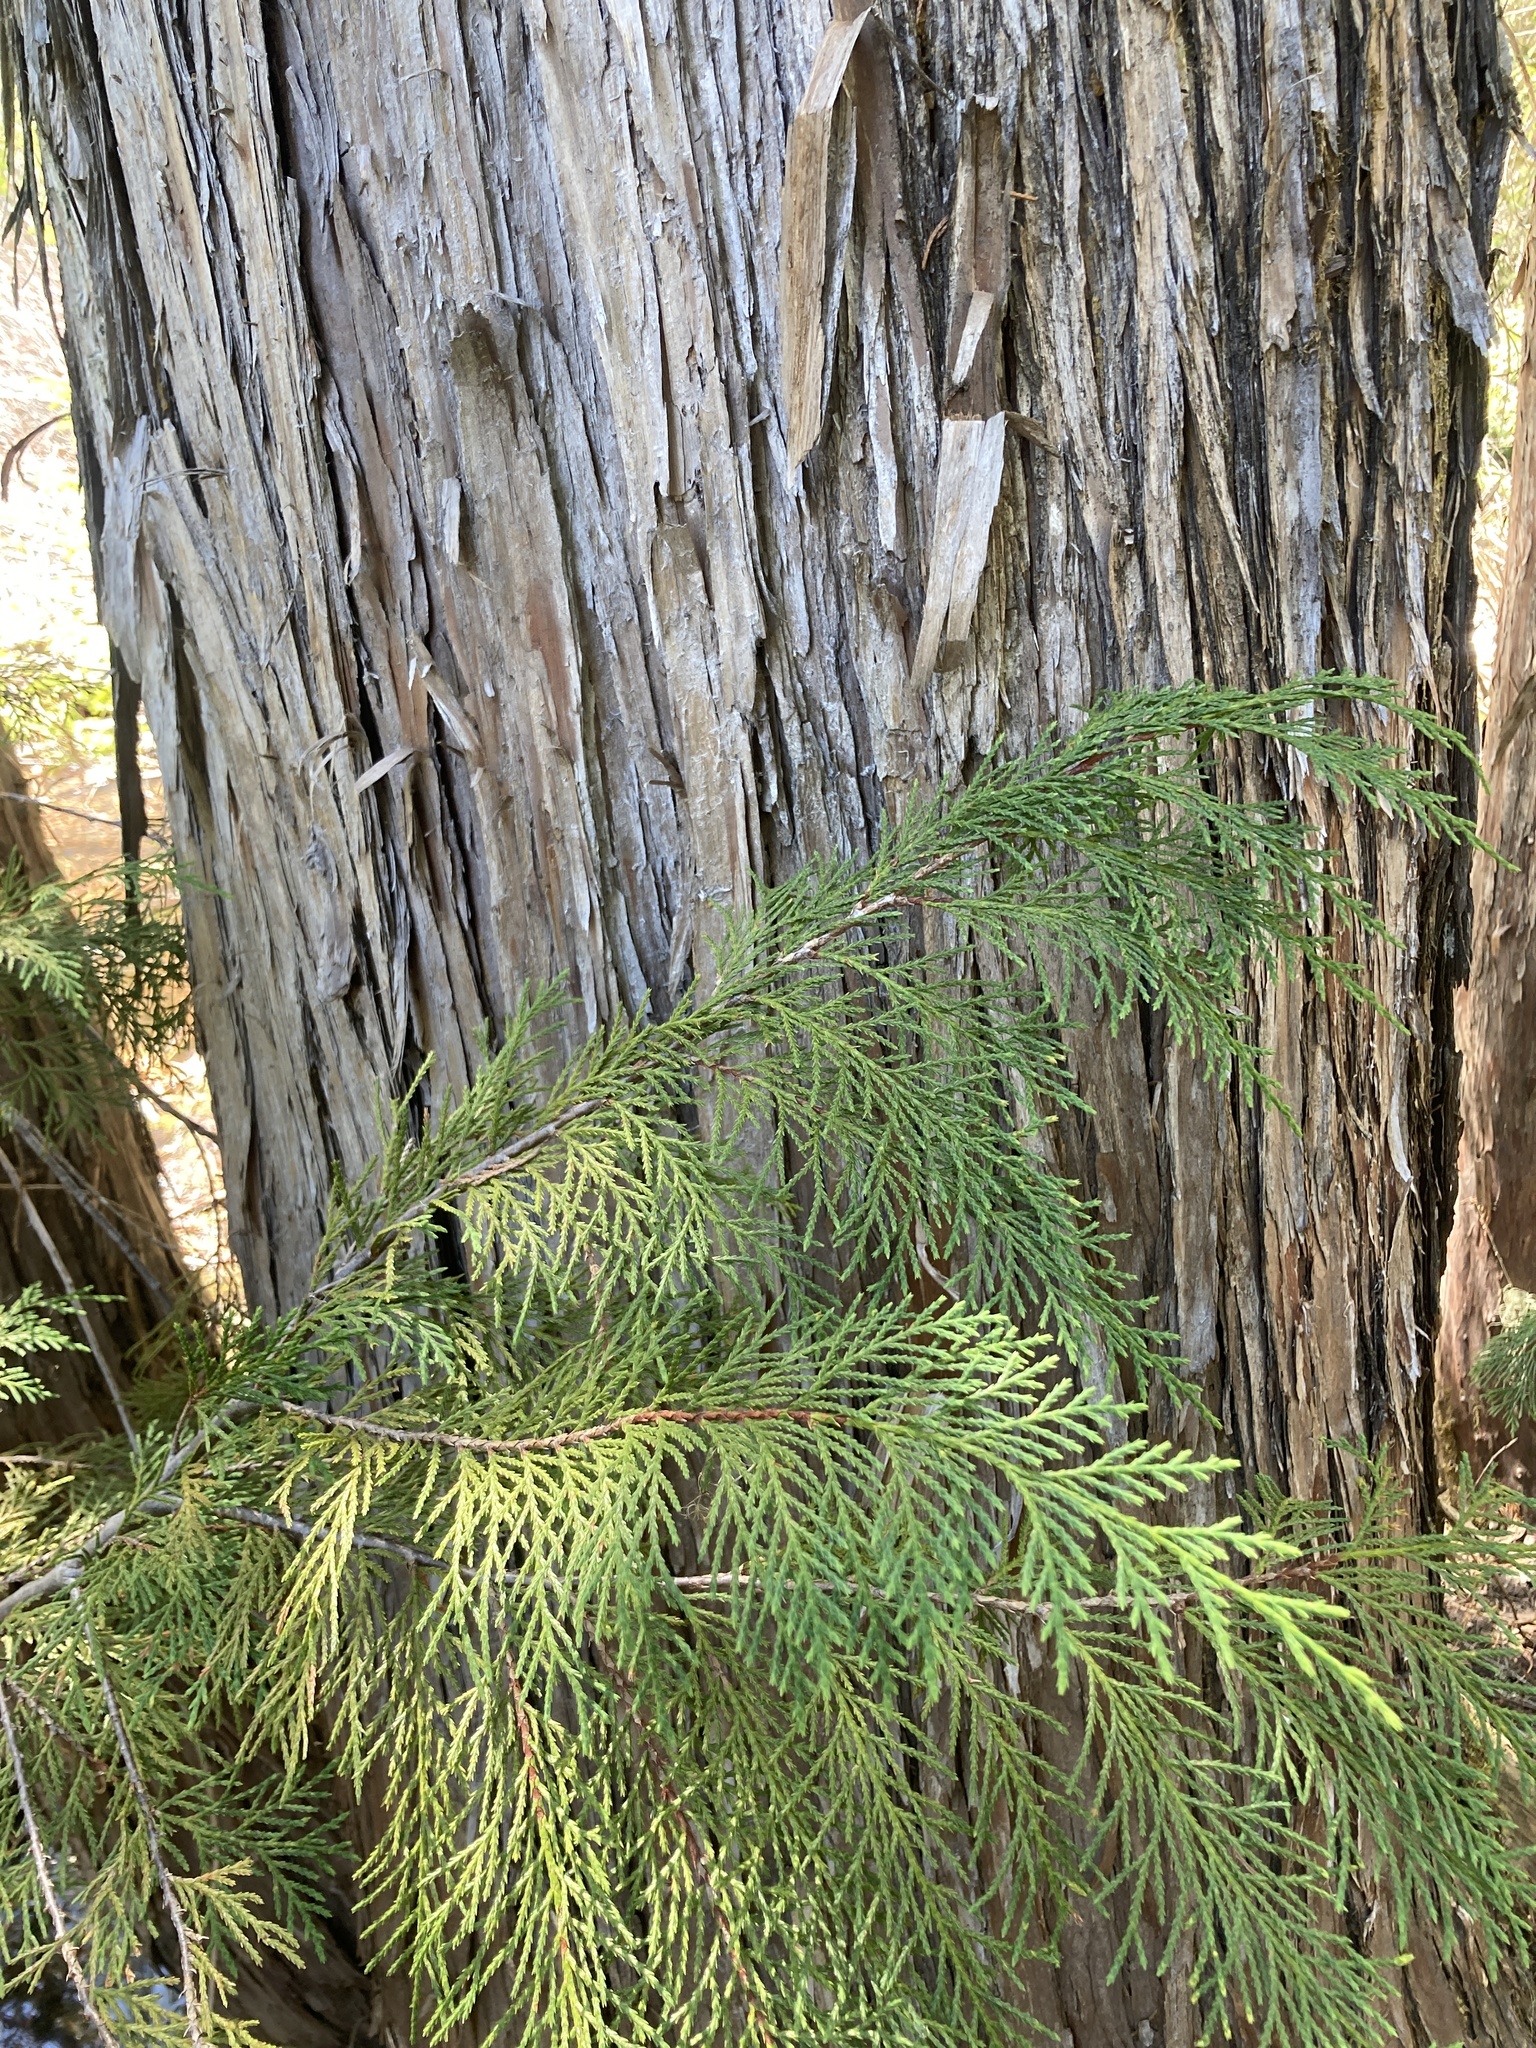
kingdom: Plantae
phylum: Tracheophyta
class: Pinopsida
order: Pinales
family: Cupressaceae
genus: Xanthocyparis
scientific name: Xanthocyparis nootkatensis
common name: Nootka cypress
